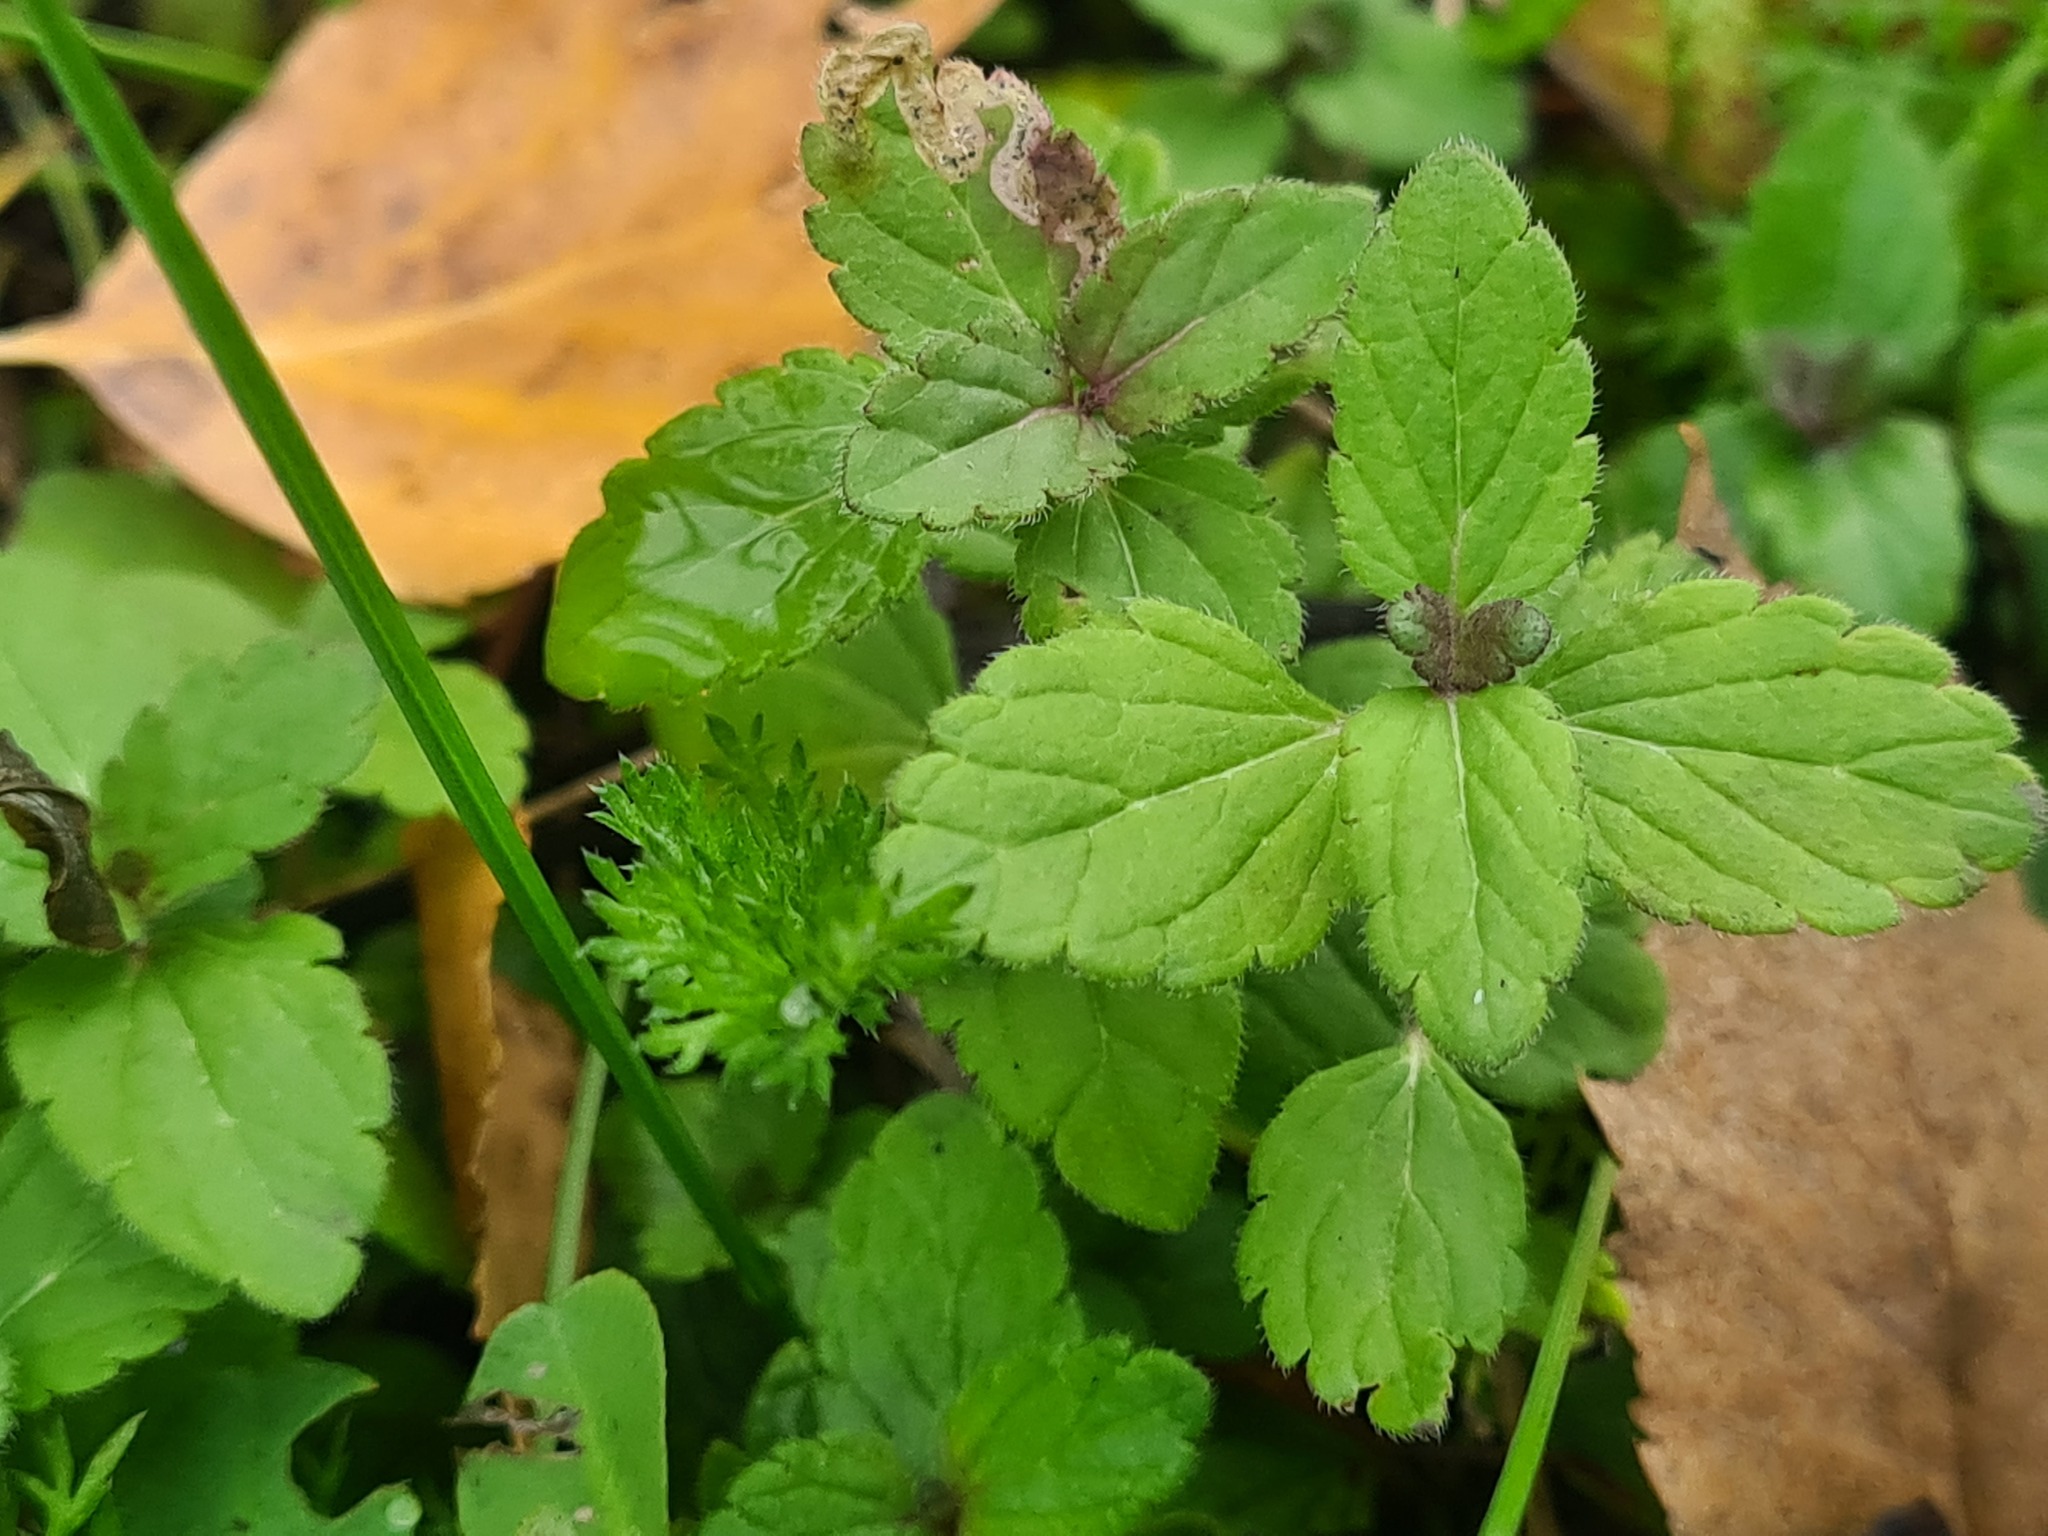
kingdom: Plantae
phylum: Tracheophyta
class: Magnoliopsida
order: Lamiales
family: Plantaginaceae
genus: Veronica
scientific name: Veronica chamaedrys
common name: Germander speedwell
